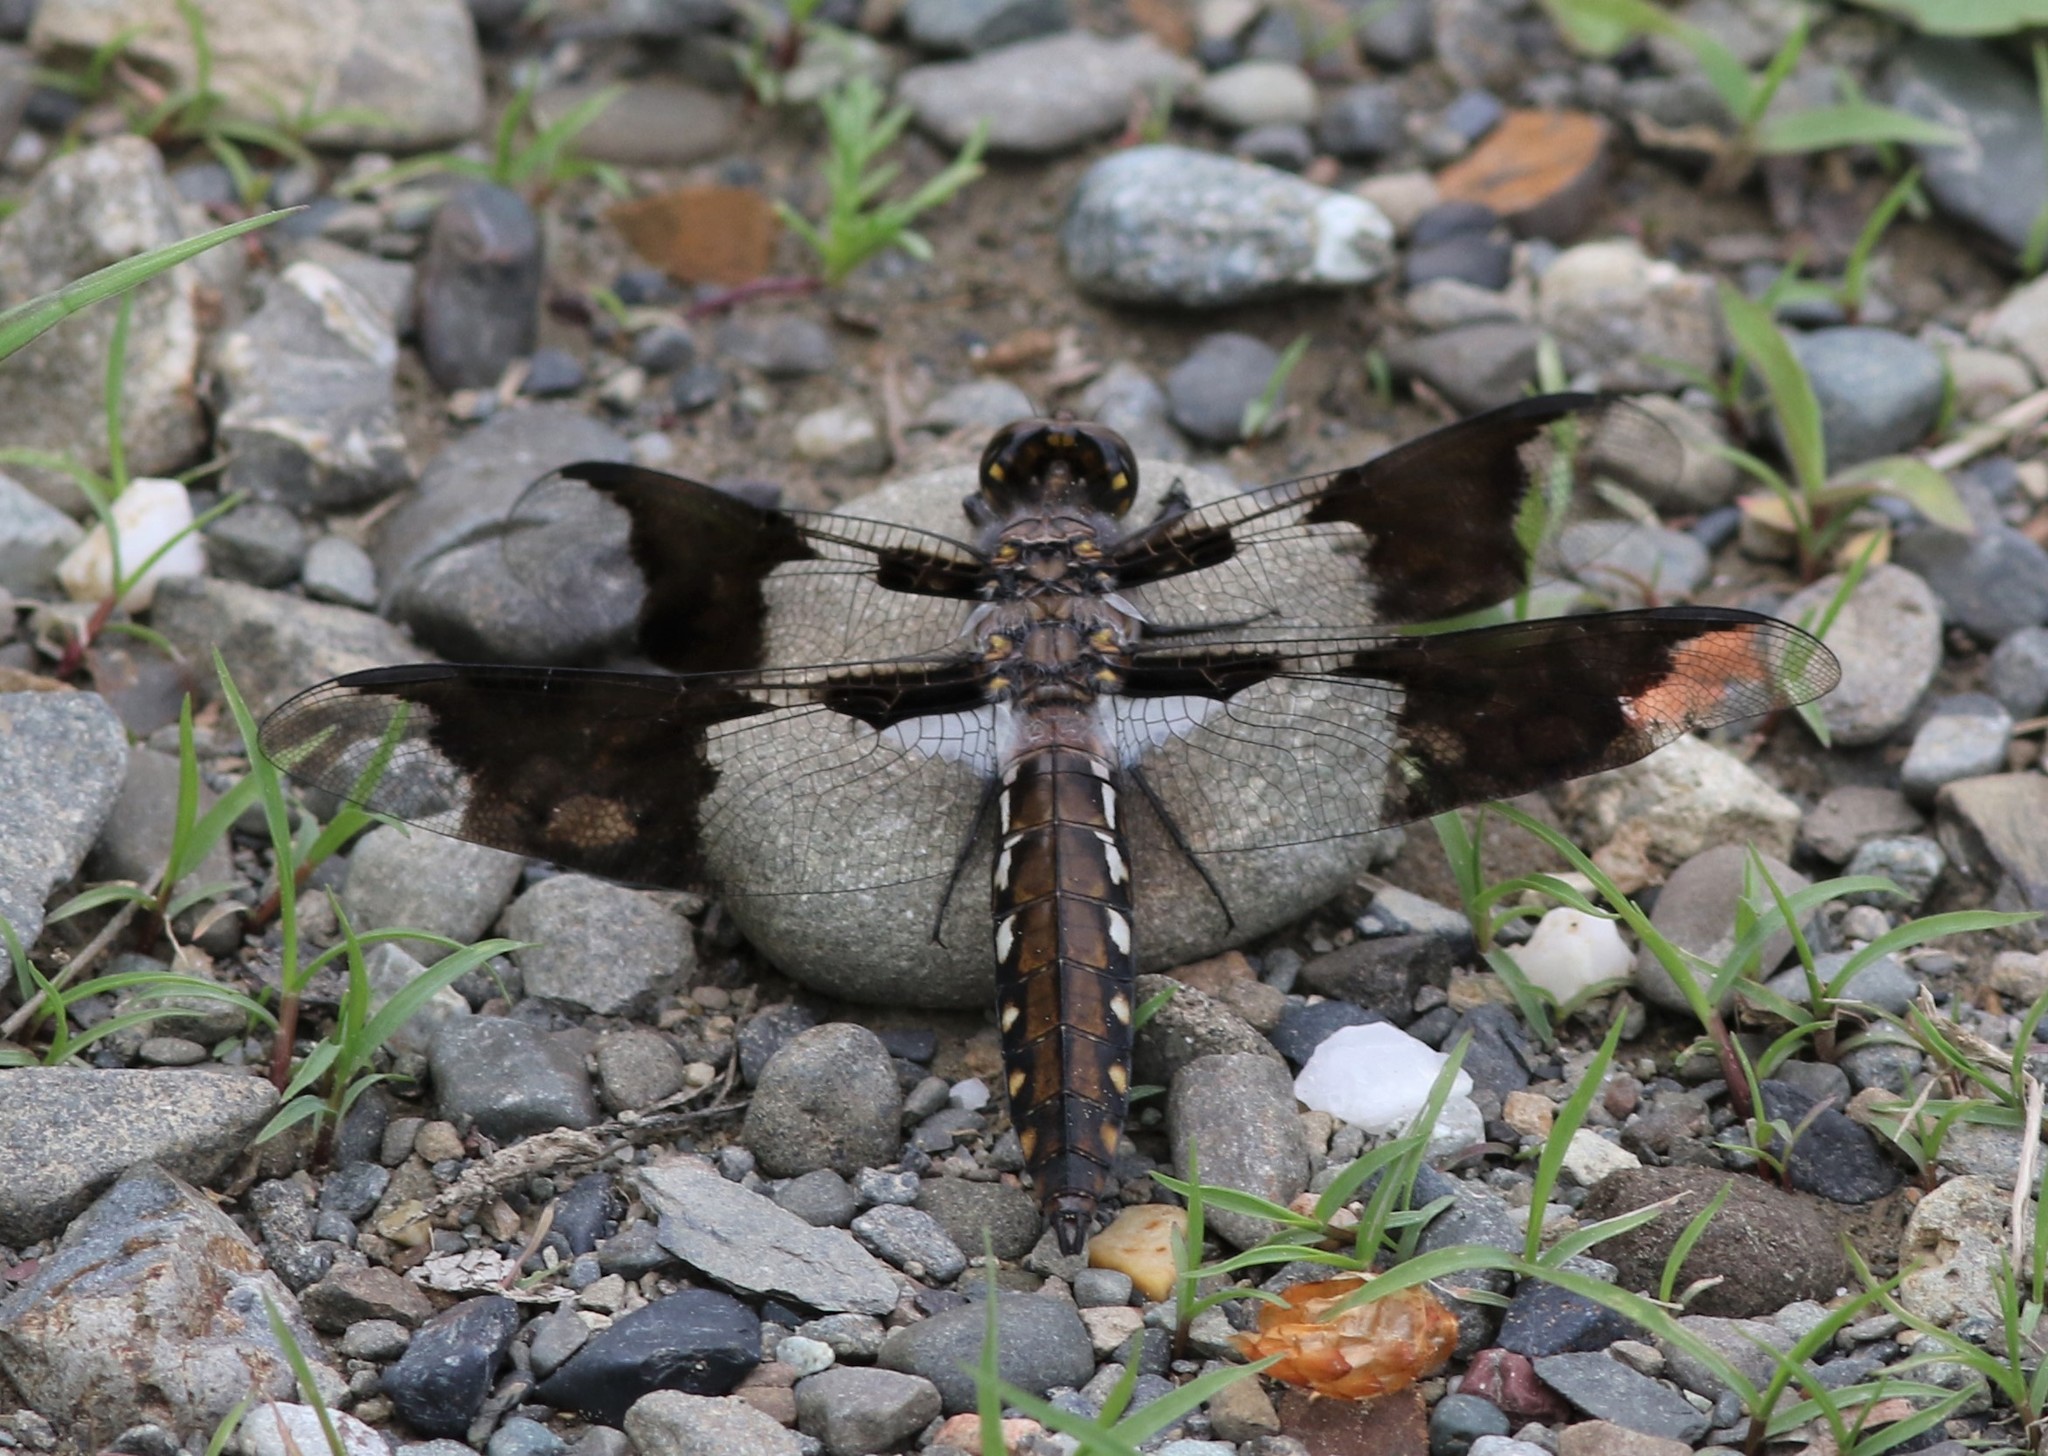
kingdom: Animalia
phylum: Arthropoda
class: Insecta
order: Odonata
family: Libellulidae
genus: Plathemis
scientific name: Plathemis lydia
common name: Common whitetail
